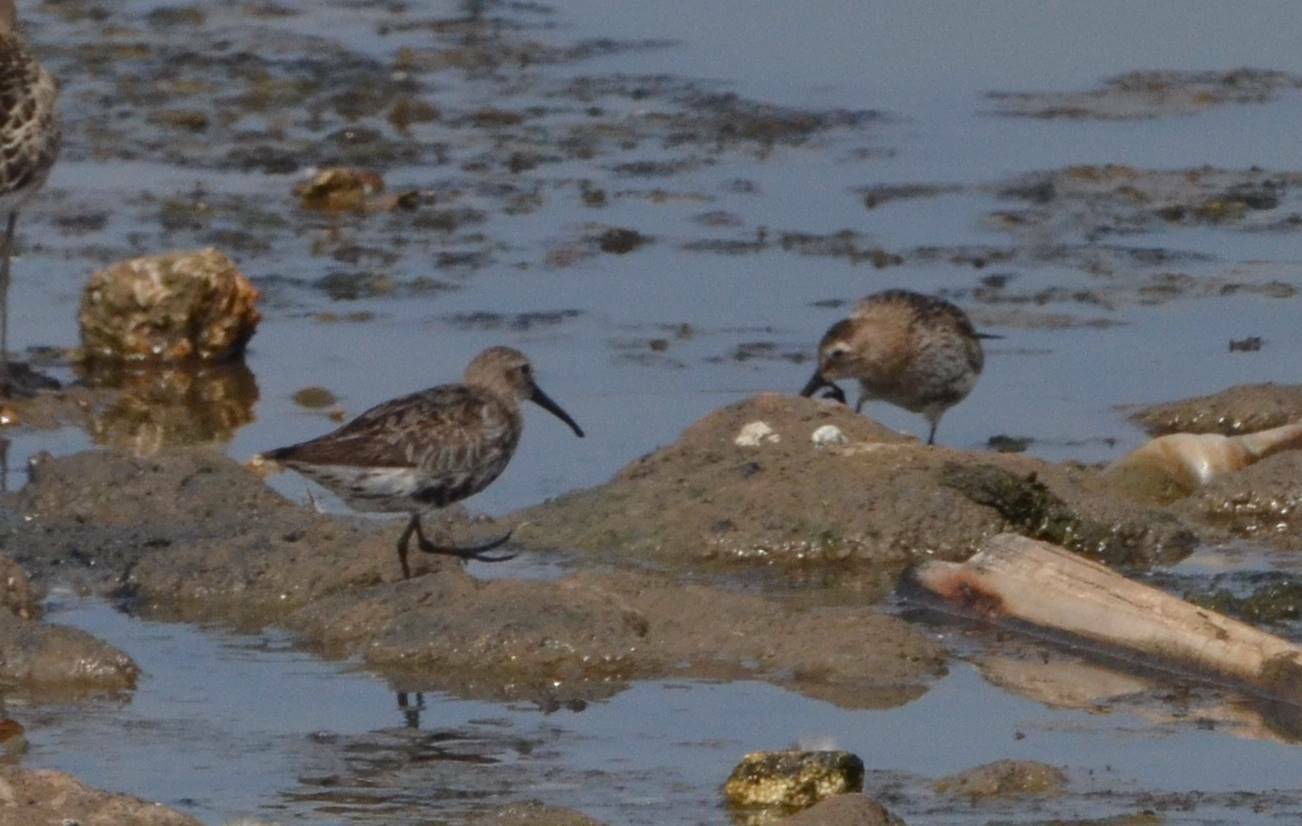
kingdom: Animalia
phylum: Chordata
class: Aves
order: Charadriiformes
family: Scolopacidae
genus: Calidris
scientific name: Calidris alpina
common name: Dunlin
